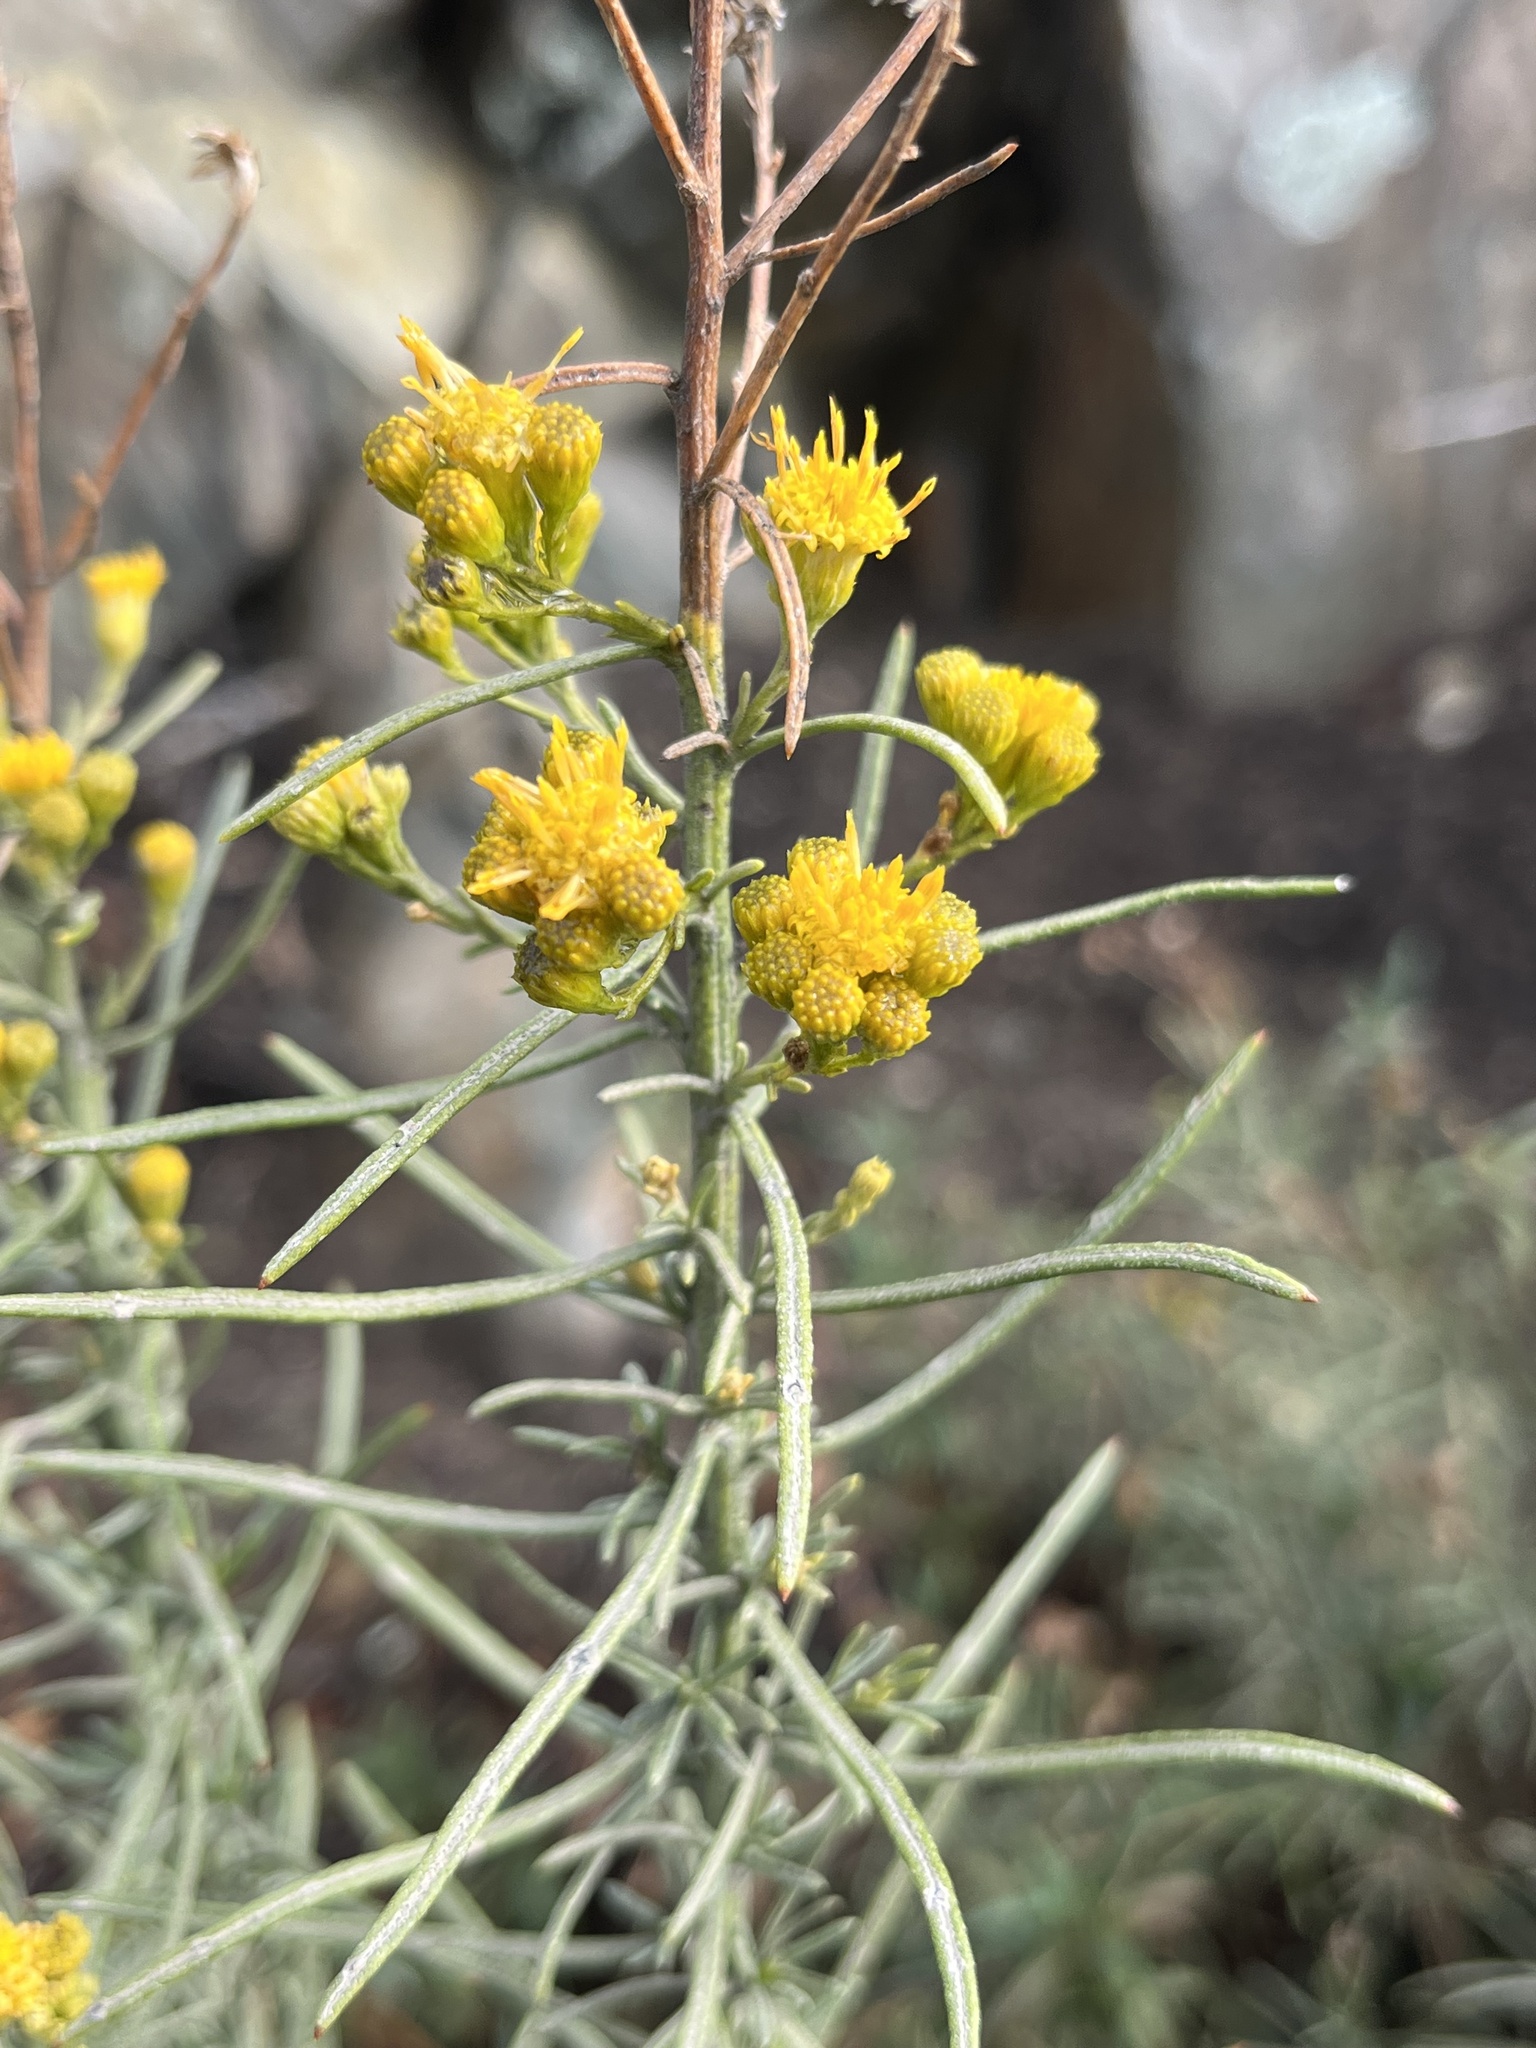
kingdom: Plantae
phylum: Tracheophyta
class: Magnoliopsida
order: Asterales
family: Asteraceae
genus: Ericameria
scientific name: Ericameria arborescens
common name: Goldenfleece
